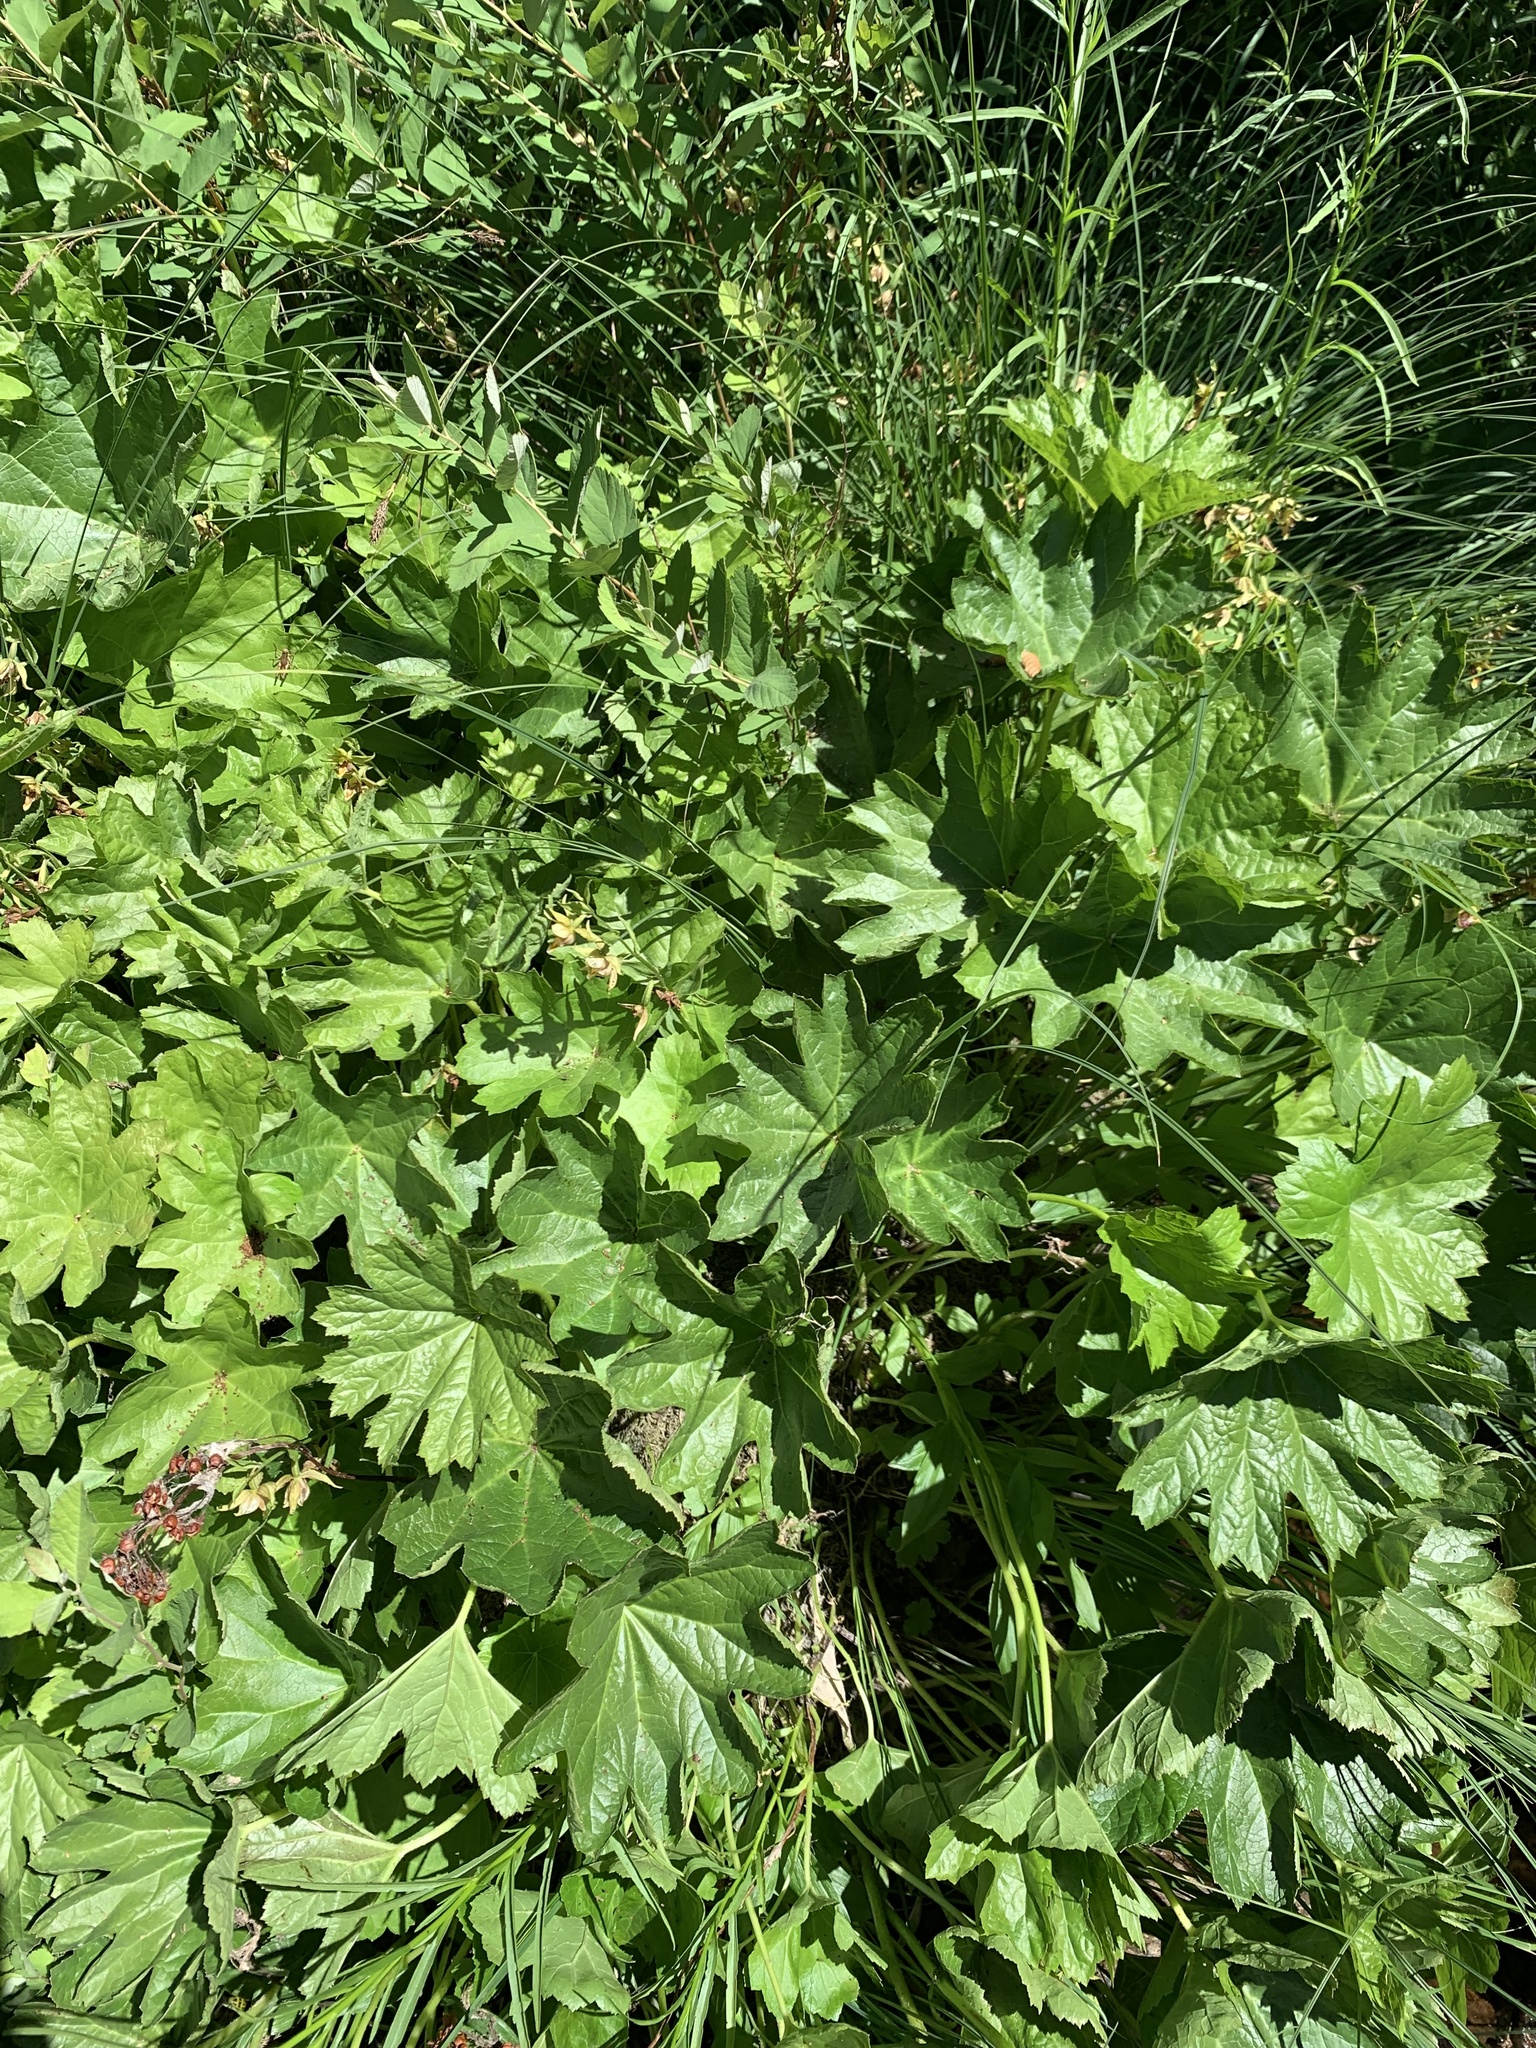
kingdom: Plantae
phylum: Tracheophyta
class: Magnoliopsida
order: Saxifragales
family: Saxifragaceae
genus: Darmera
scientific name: Darmera peltata
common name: Indian-rhubarb
